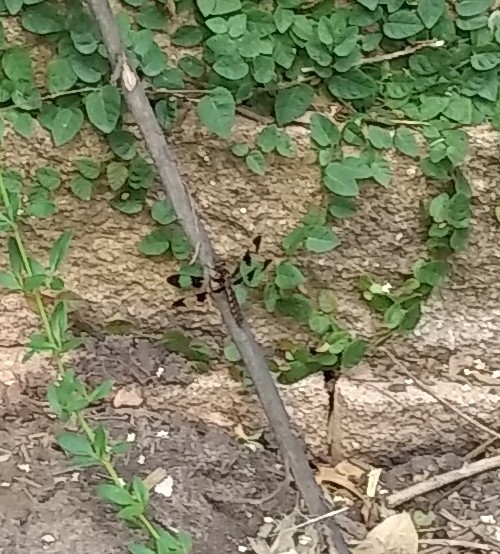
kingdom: Animalia
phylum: Arthropoda
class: Insecta
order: Odonata
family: Libellulidae
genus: Plathemis
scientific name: Plathemis lydia
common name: Common whitetail
